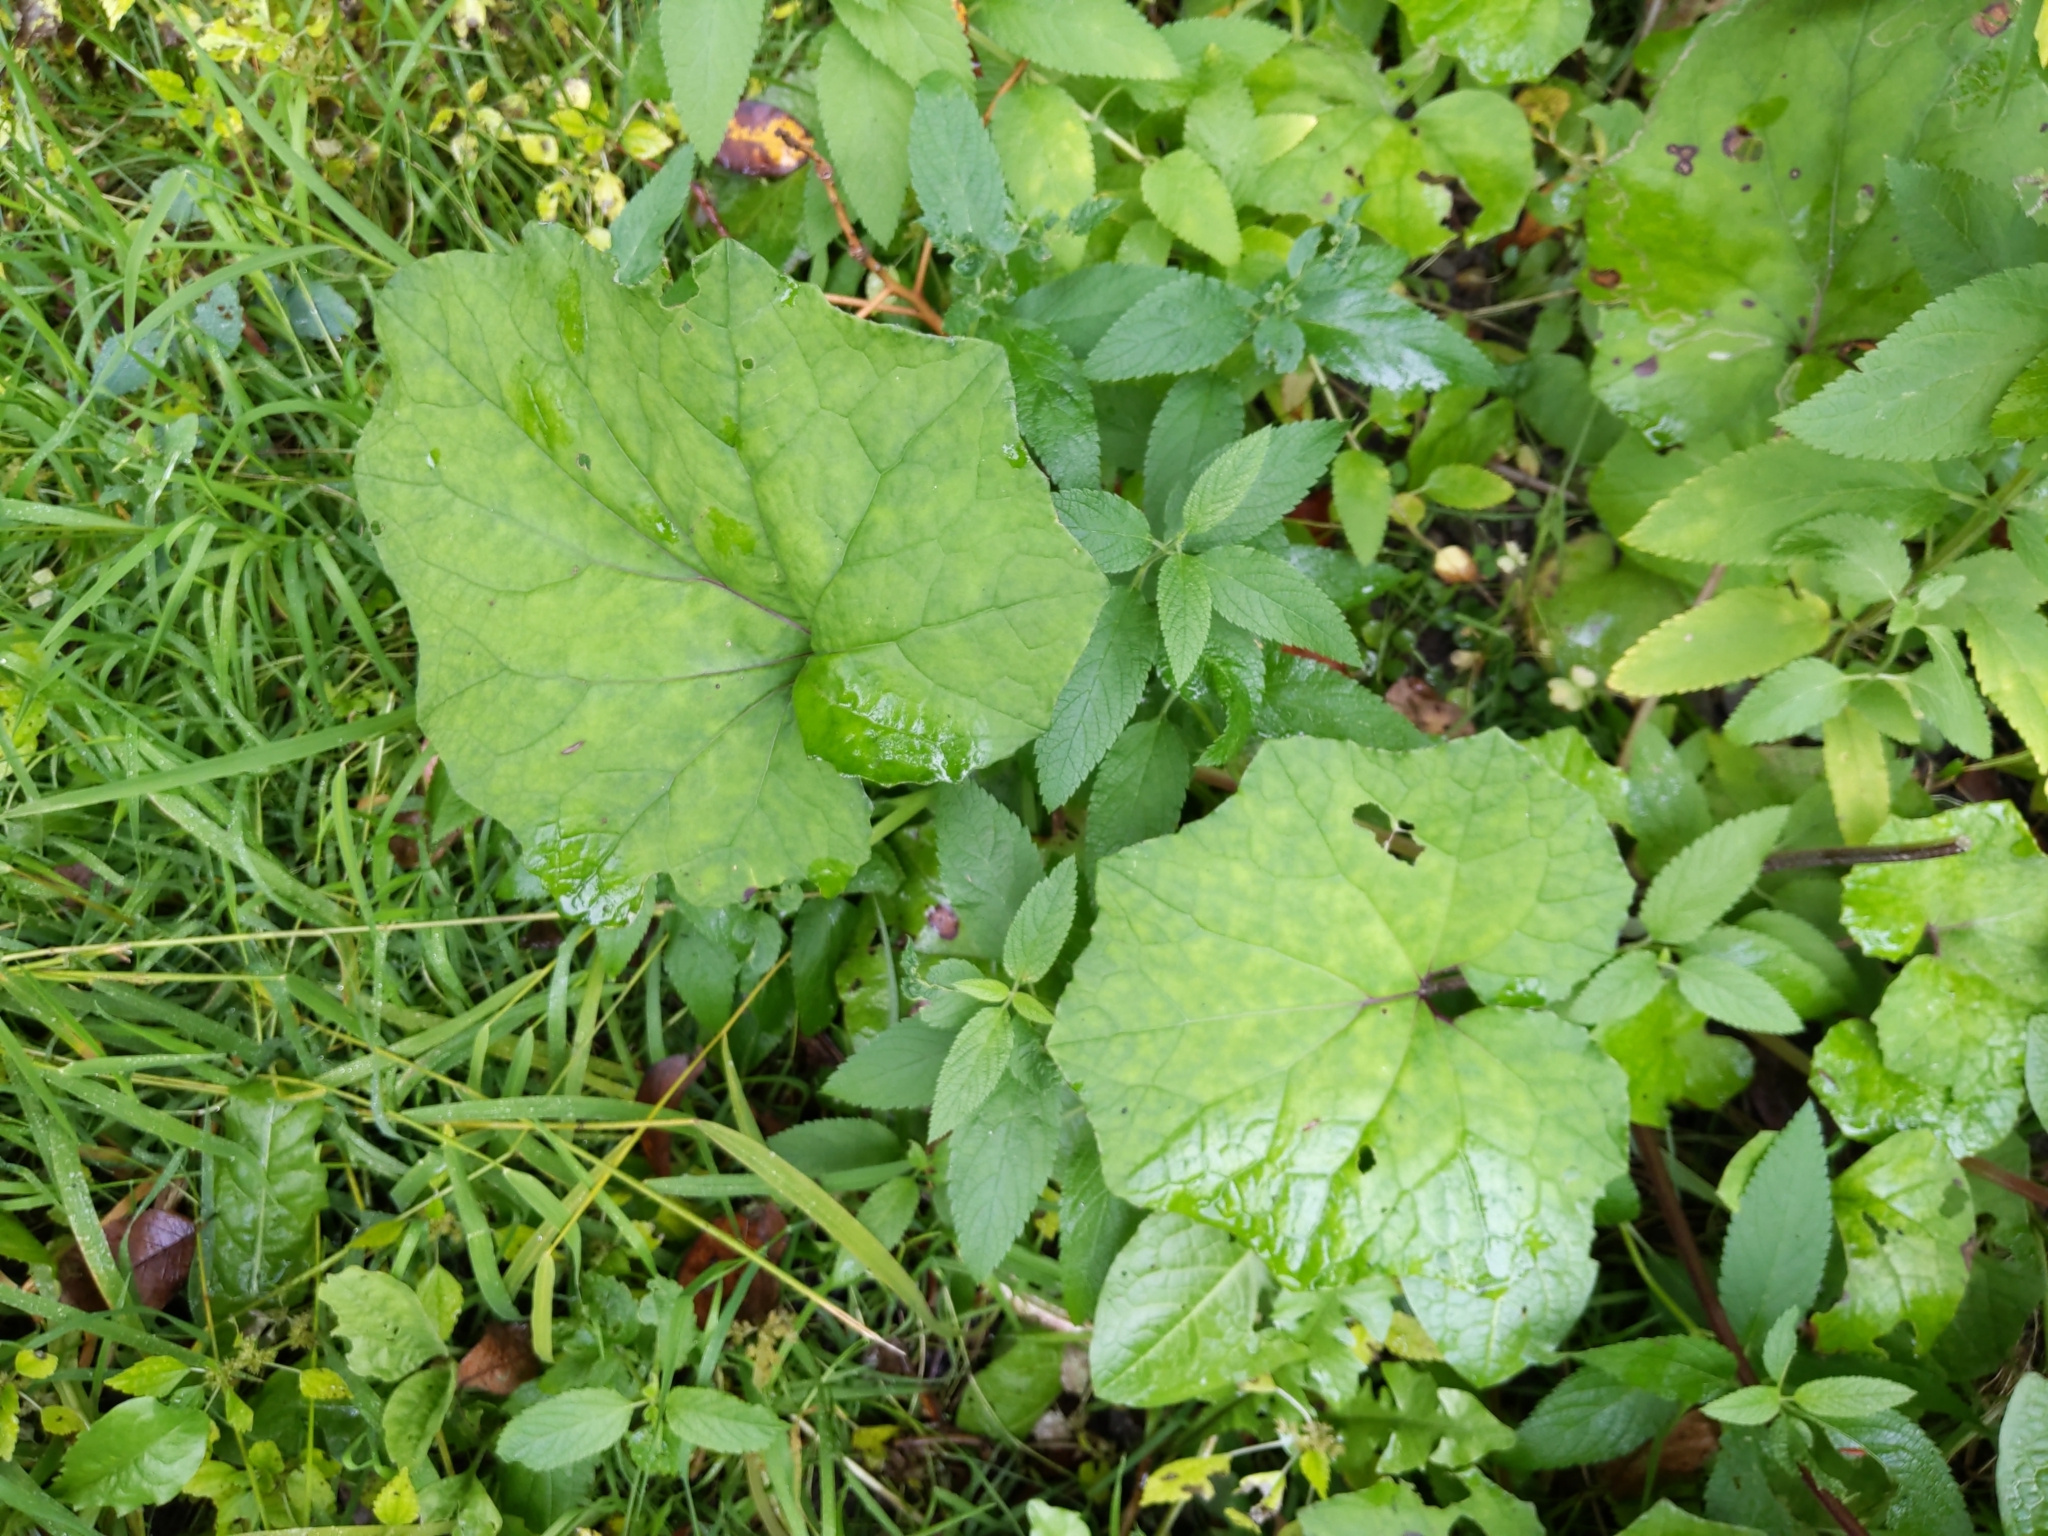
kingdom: Plantae
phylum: Tracheophyta
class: Magnoliopsida
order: Asterales
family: Asteraceae
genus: Tussilago
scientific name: Tussilago farfara
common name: Coltsfoot
